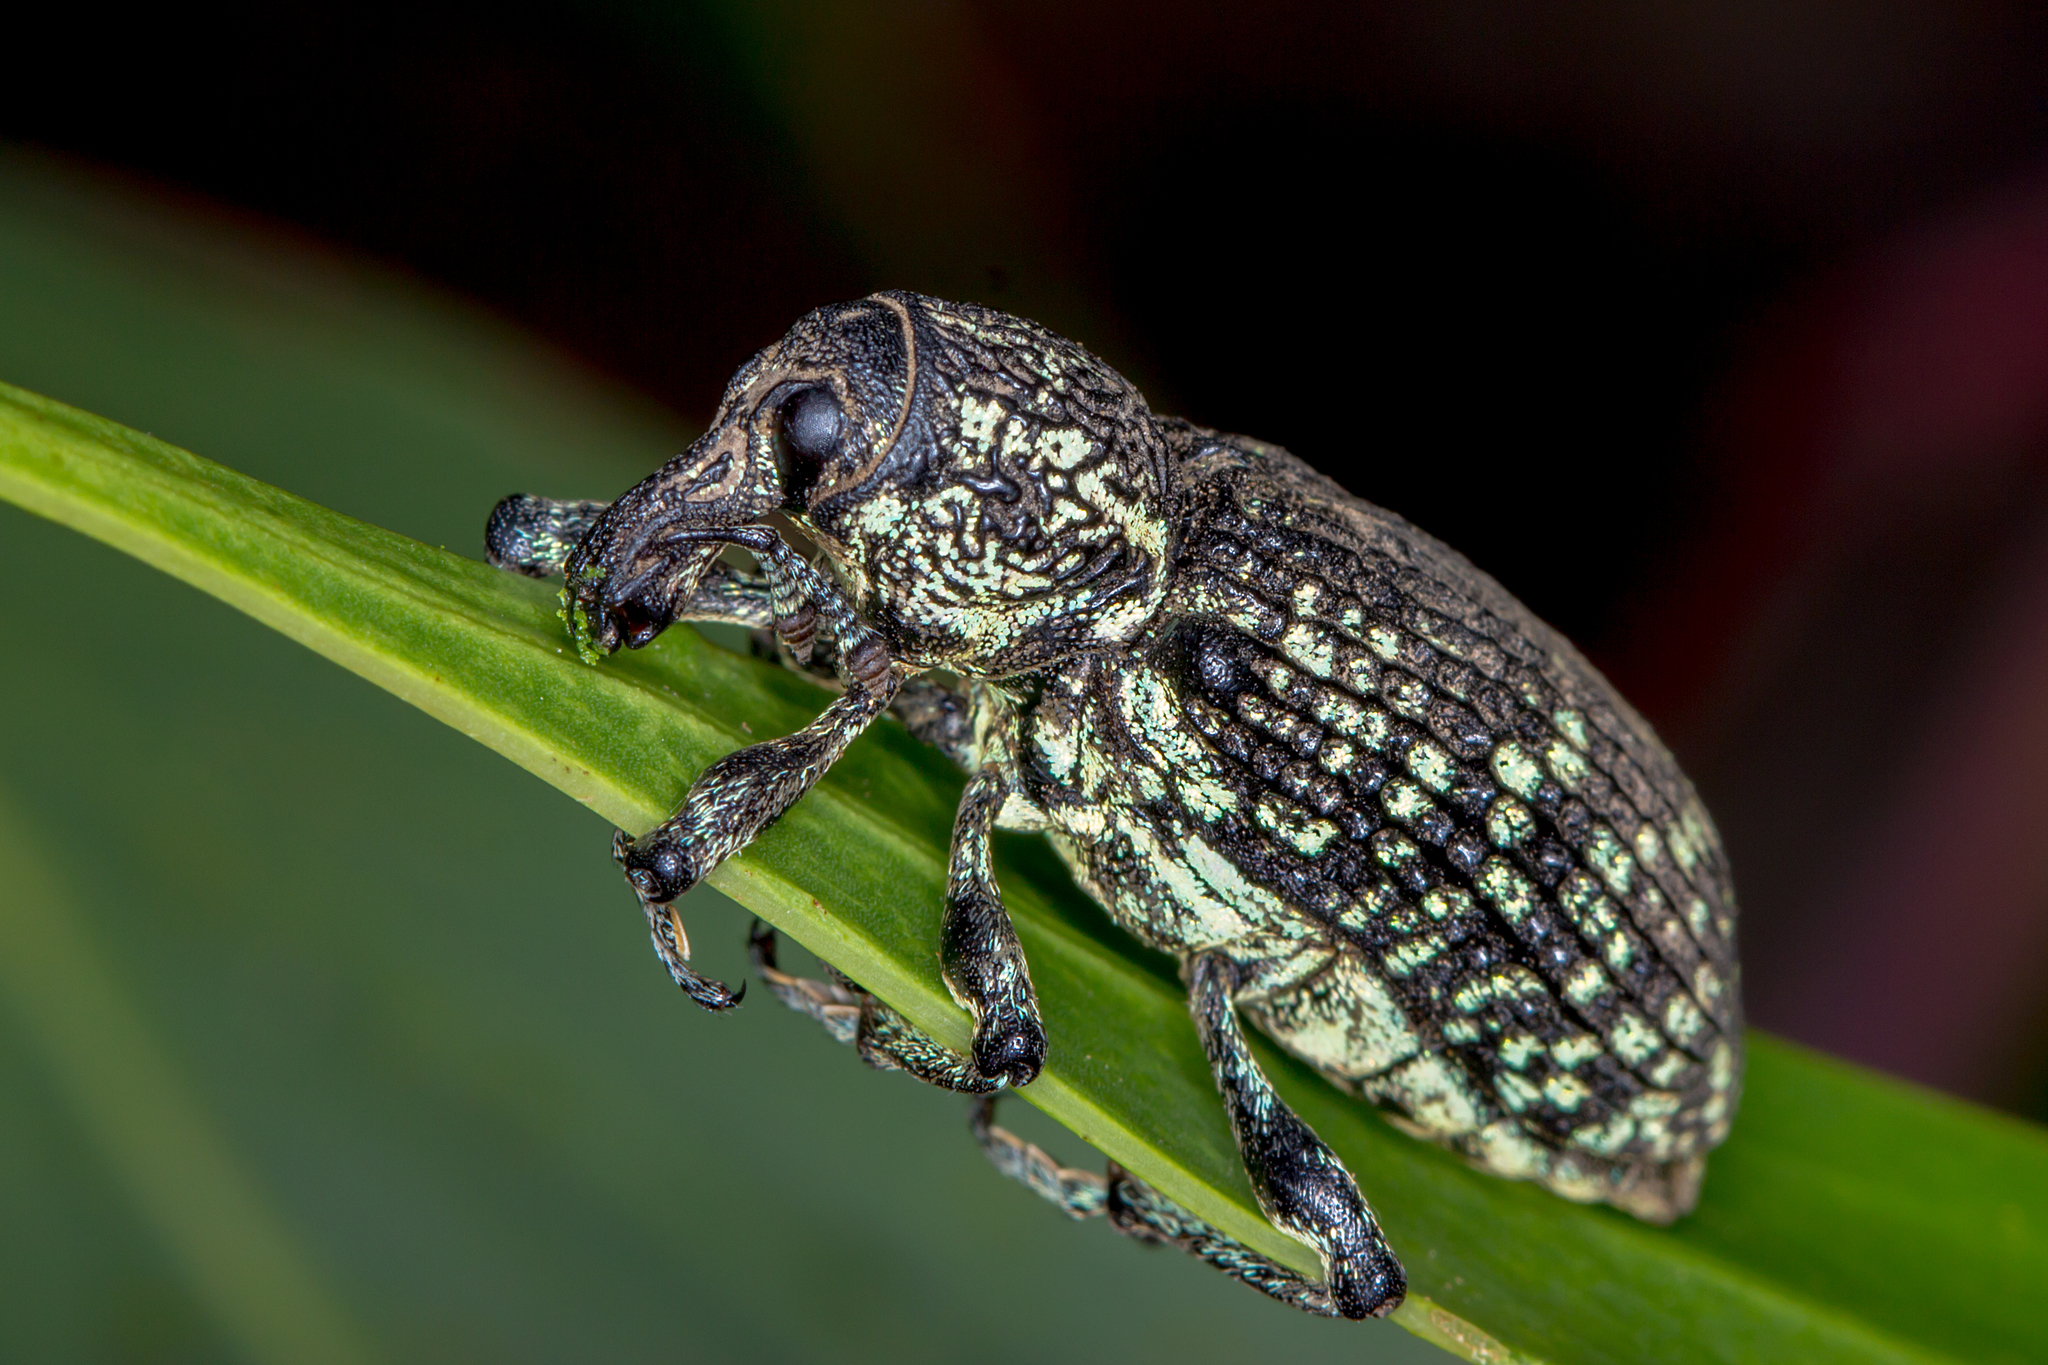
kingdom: Animalia
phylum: Arthropoda
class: Insecta
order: Coleoptera
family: Curculionidae
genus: Chrysolopus
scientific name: Chrysolopus spectabilis
